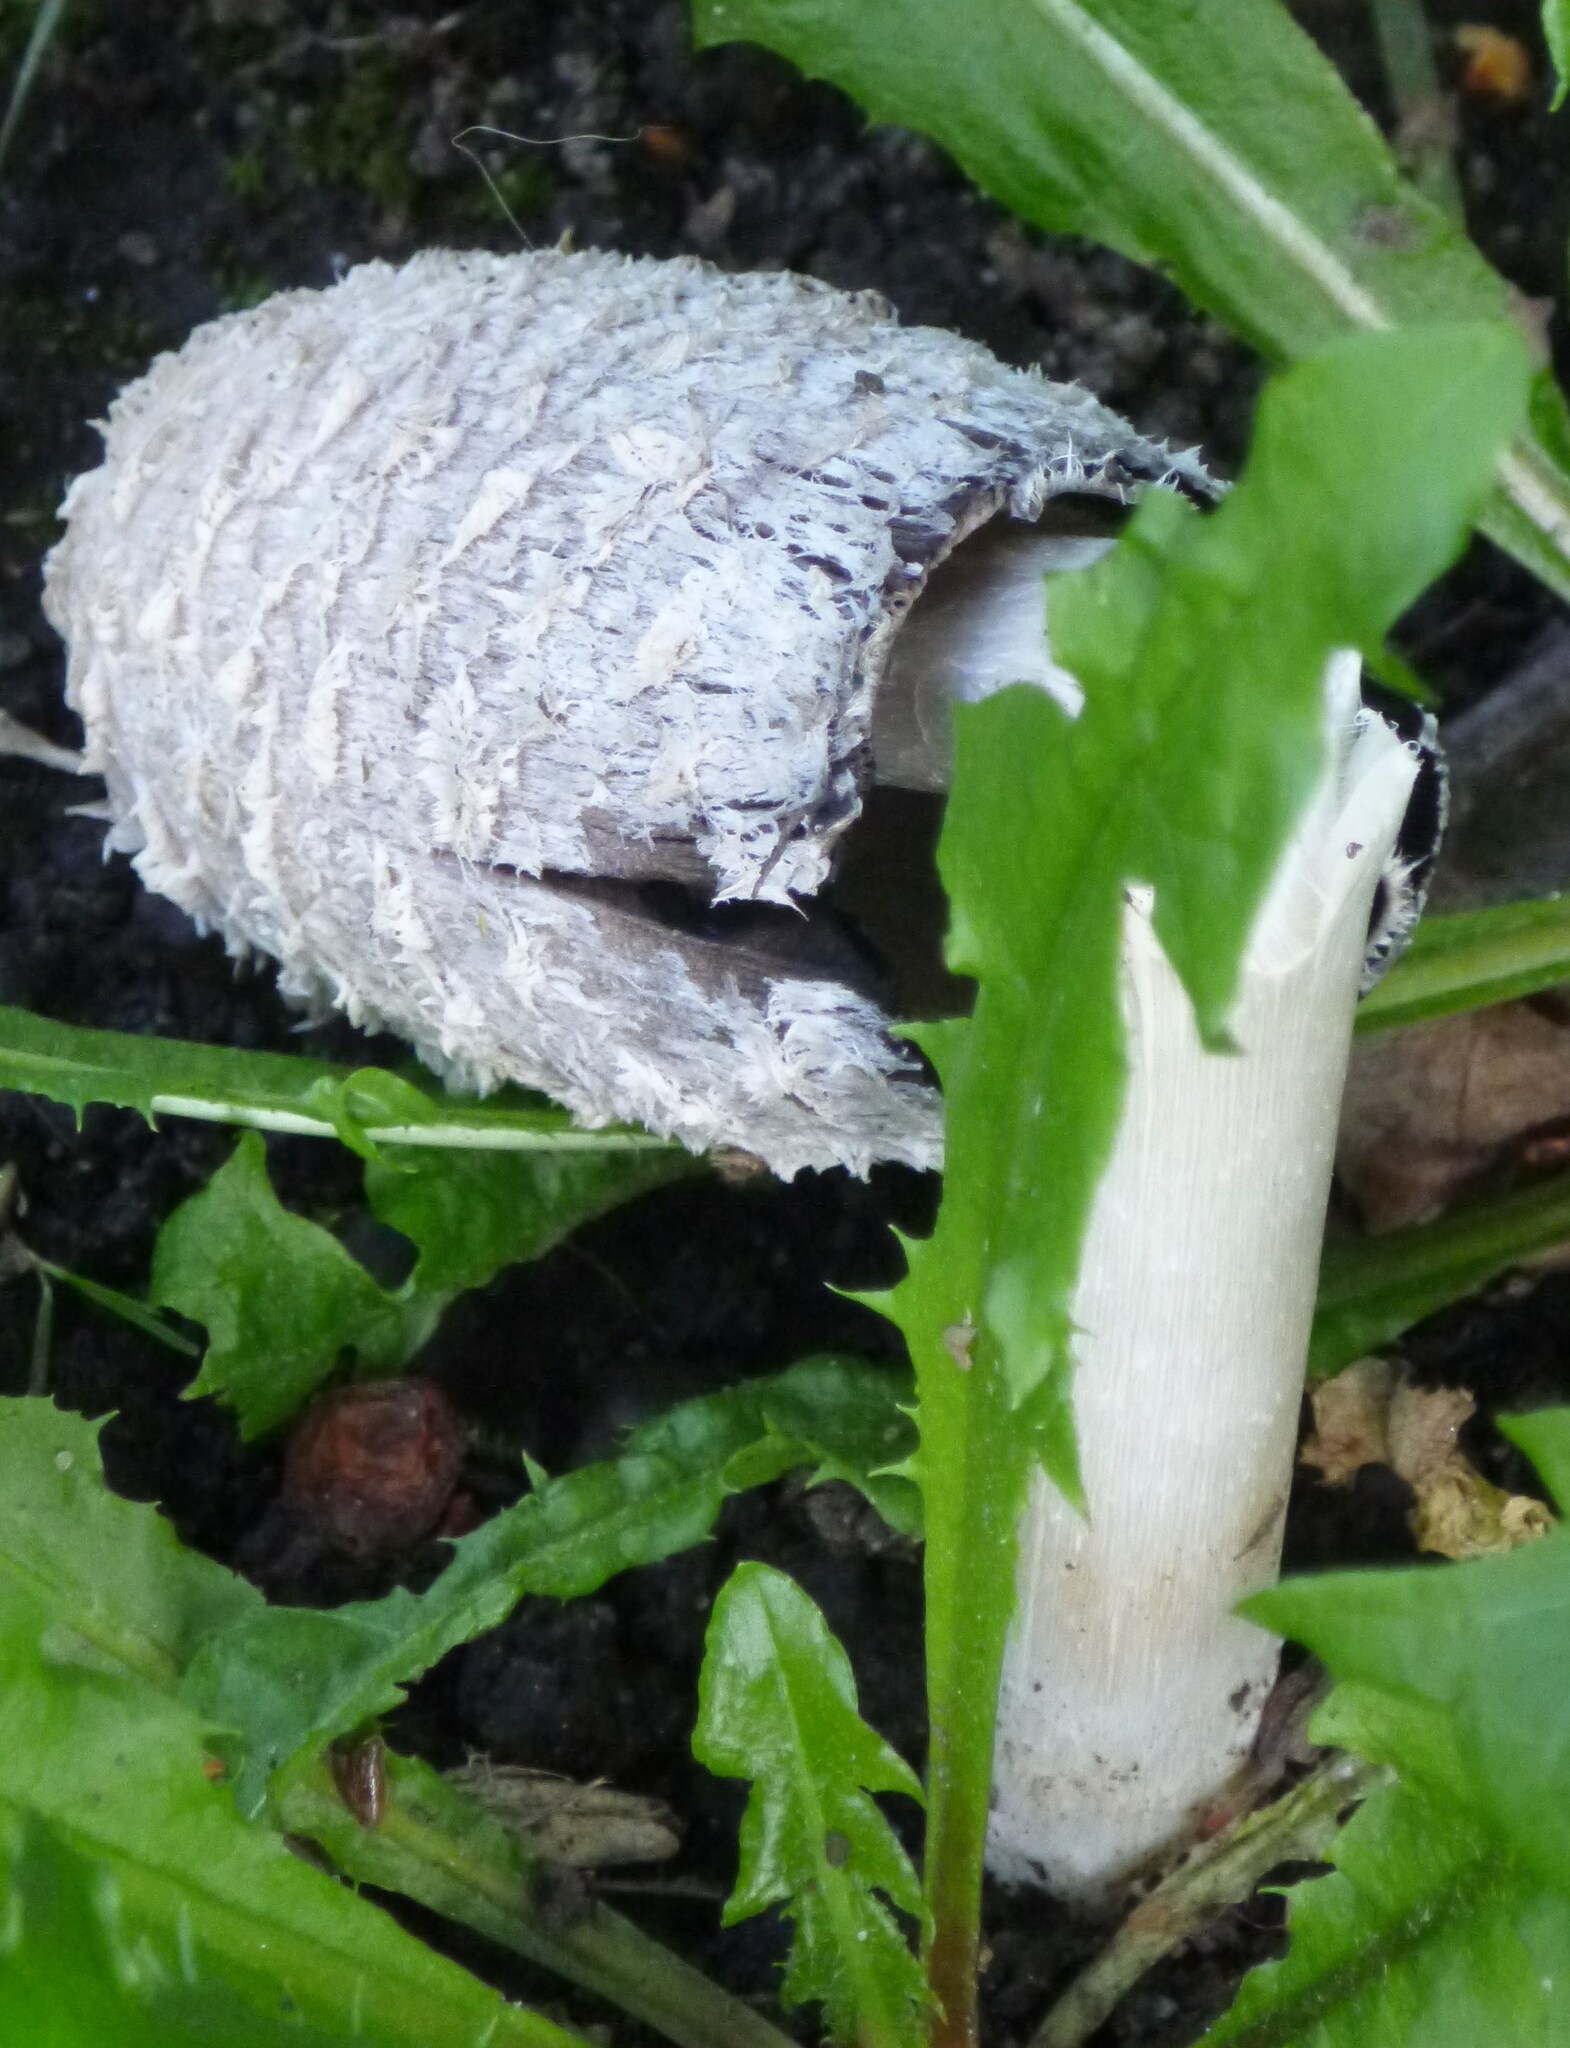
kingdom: Fungi
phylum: Basidiomycota
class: Agaricomycetes
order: Agaricales
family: Agaricaceae
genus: Coprinus
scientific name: Coprinus comatus
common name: Lawyer's wig
